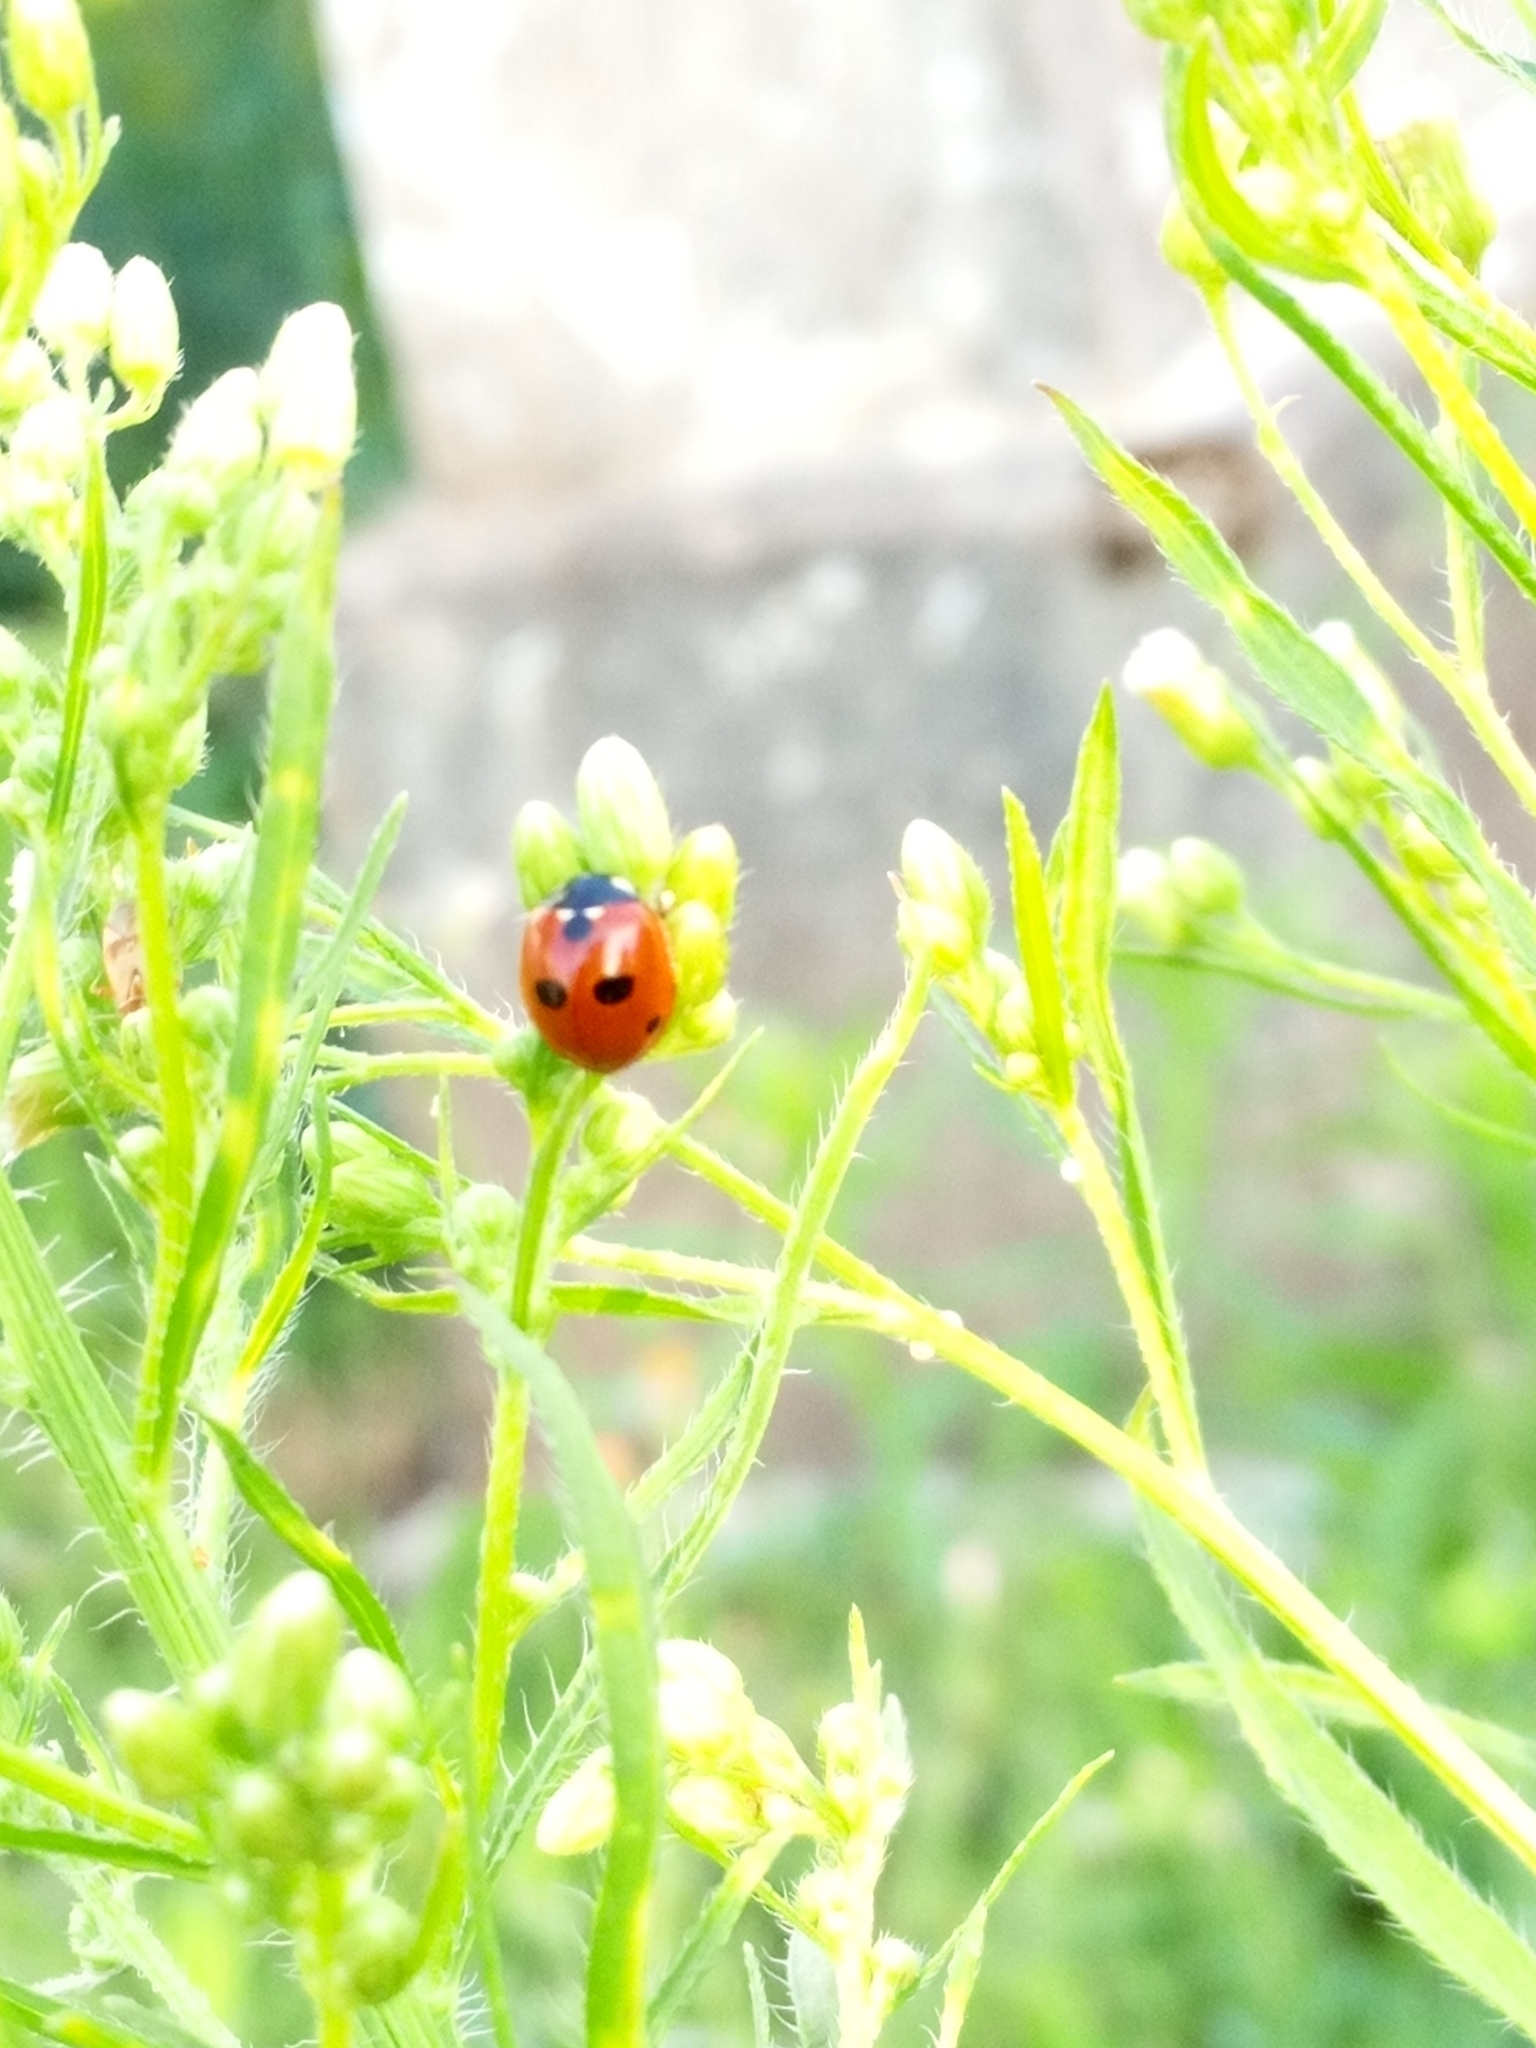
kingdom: Animalia
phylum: Arthropoda
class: Insecta
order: Coleoptera
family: Coccinellidae
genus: Coccinella
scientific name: Coccinella quinquepunctata
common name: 5-spot ladybird
